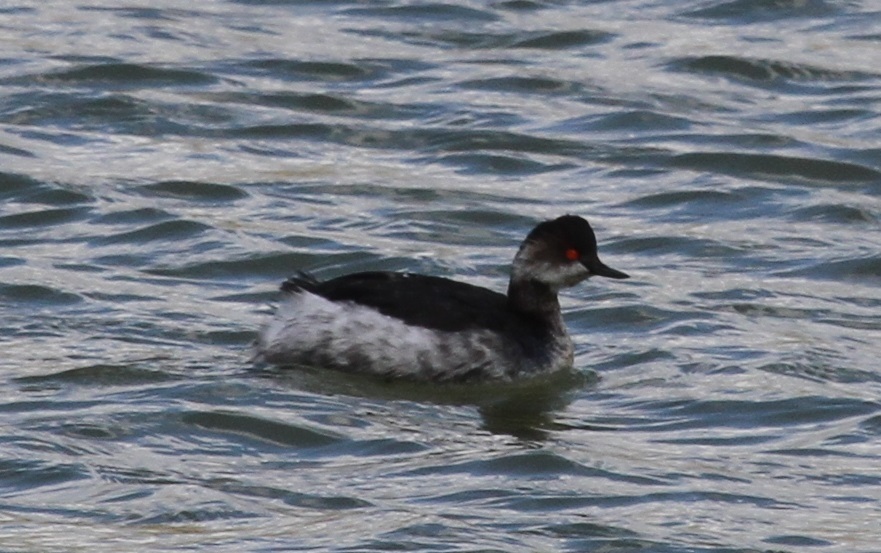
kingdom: Animalia
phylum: Chordata
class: Aves
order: Podicipediformes
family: Podicipedidae
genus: Podiceps
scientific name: Podiceps nigricollis
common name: Black-necked grebe
